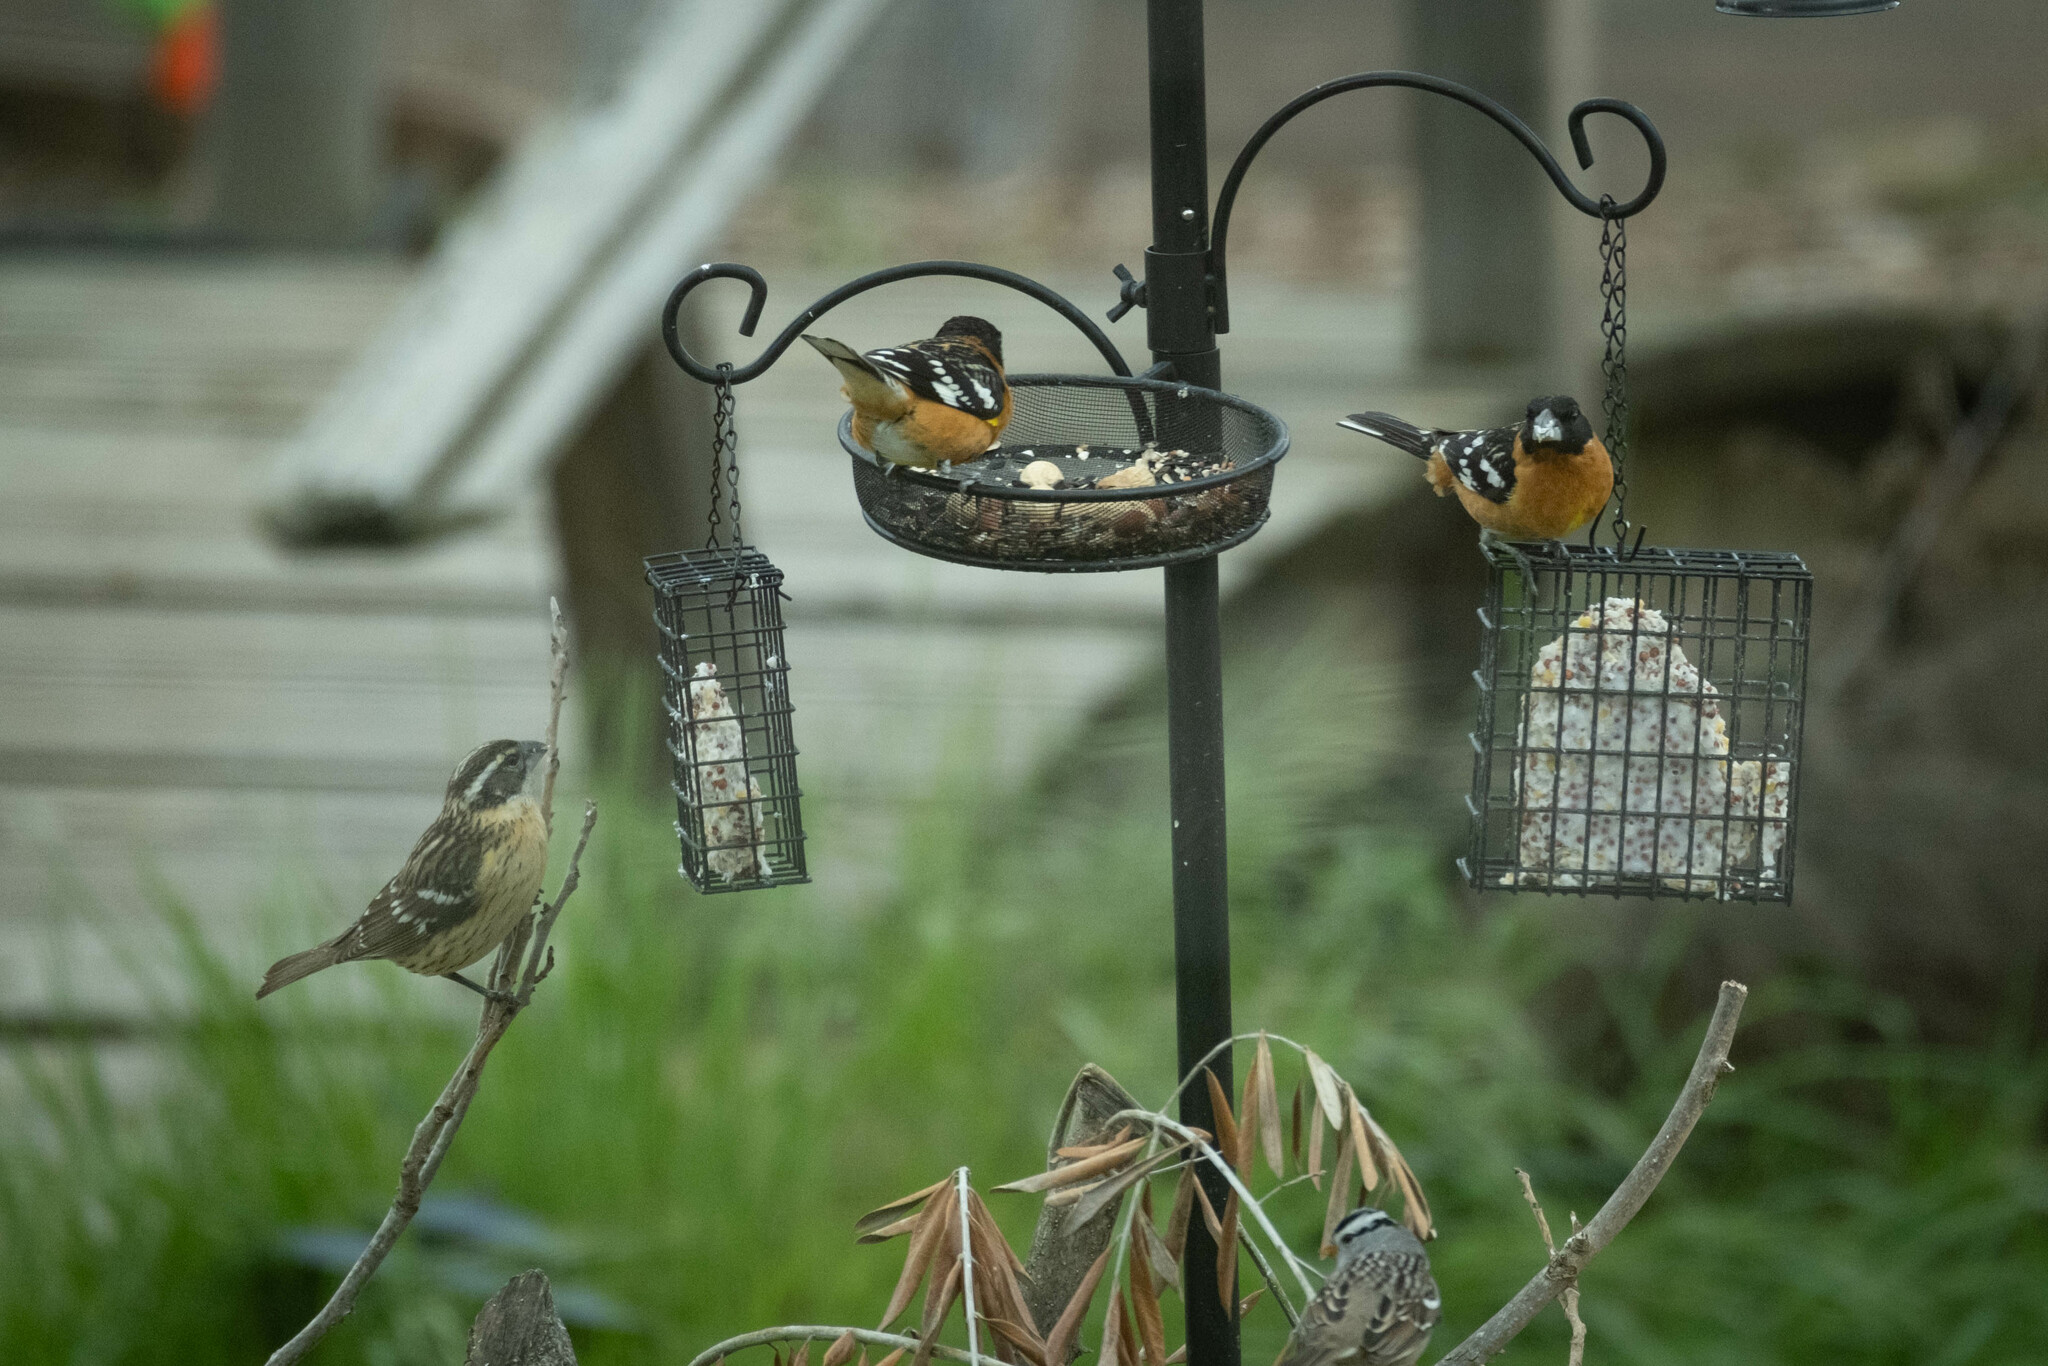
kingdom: Animalia
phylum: Chordata
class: Aves
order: Passeriformes
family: Cardinalidae
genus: Pheucticus
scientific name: Pheucticus melanocephalus
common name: Black-headed grosbeak
